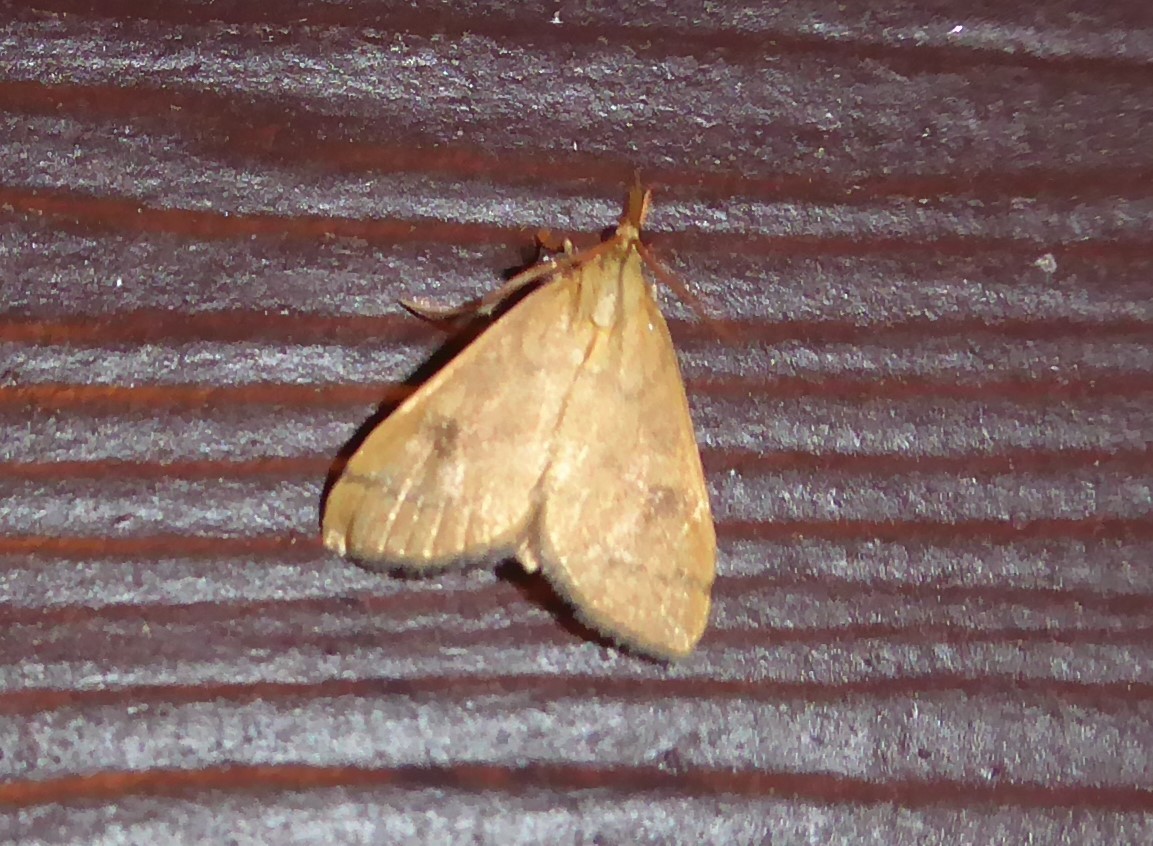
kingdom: Animalia
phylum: Arthropoda
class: Insecta
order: Lepidoptera
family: Crambidae
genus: Udea
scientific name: Udea Mnesictena flavidalis
